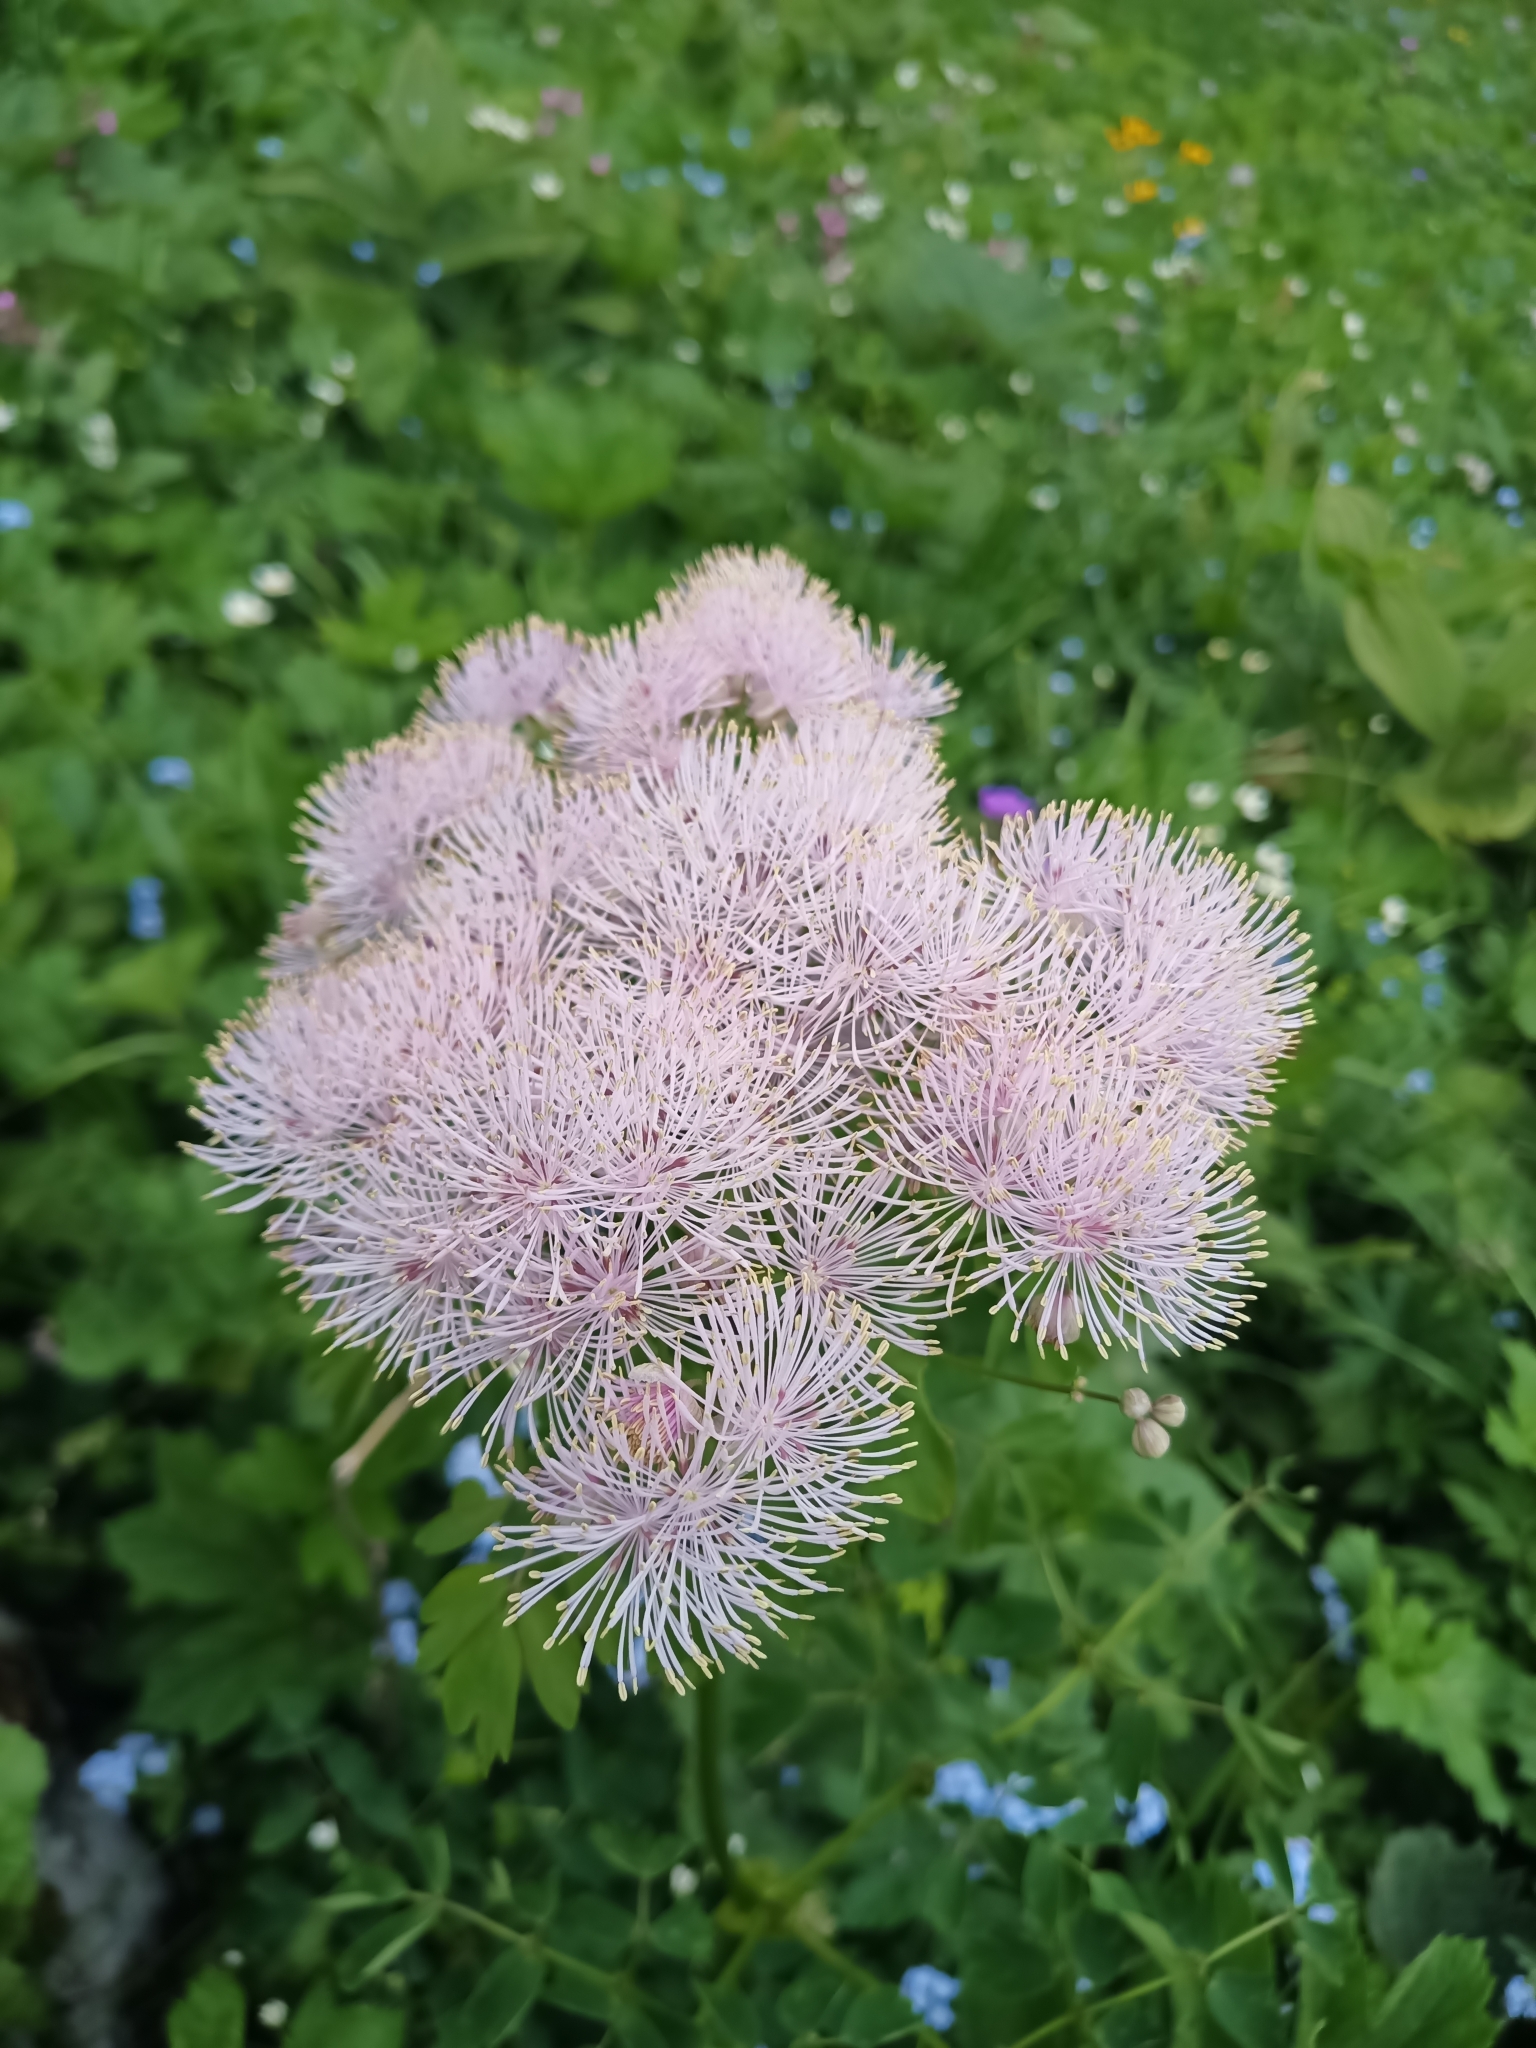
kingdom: Plantae
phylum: Tracheophyta
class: Magnoliopsida
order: Ranunculales
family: Ranunculaceae
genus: Thalictrum
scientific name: Thalictrum aquilegiifolium
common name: French meadow-rue
